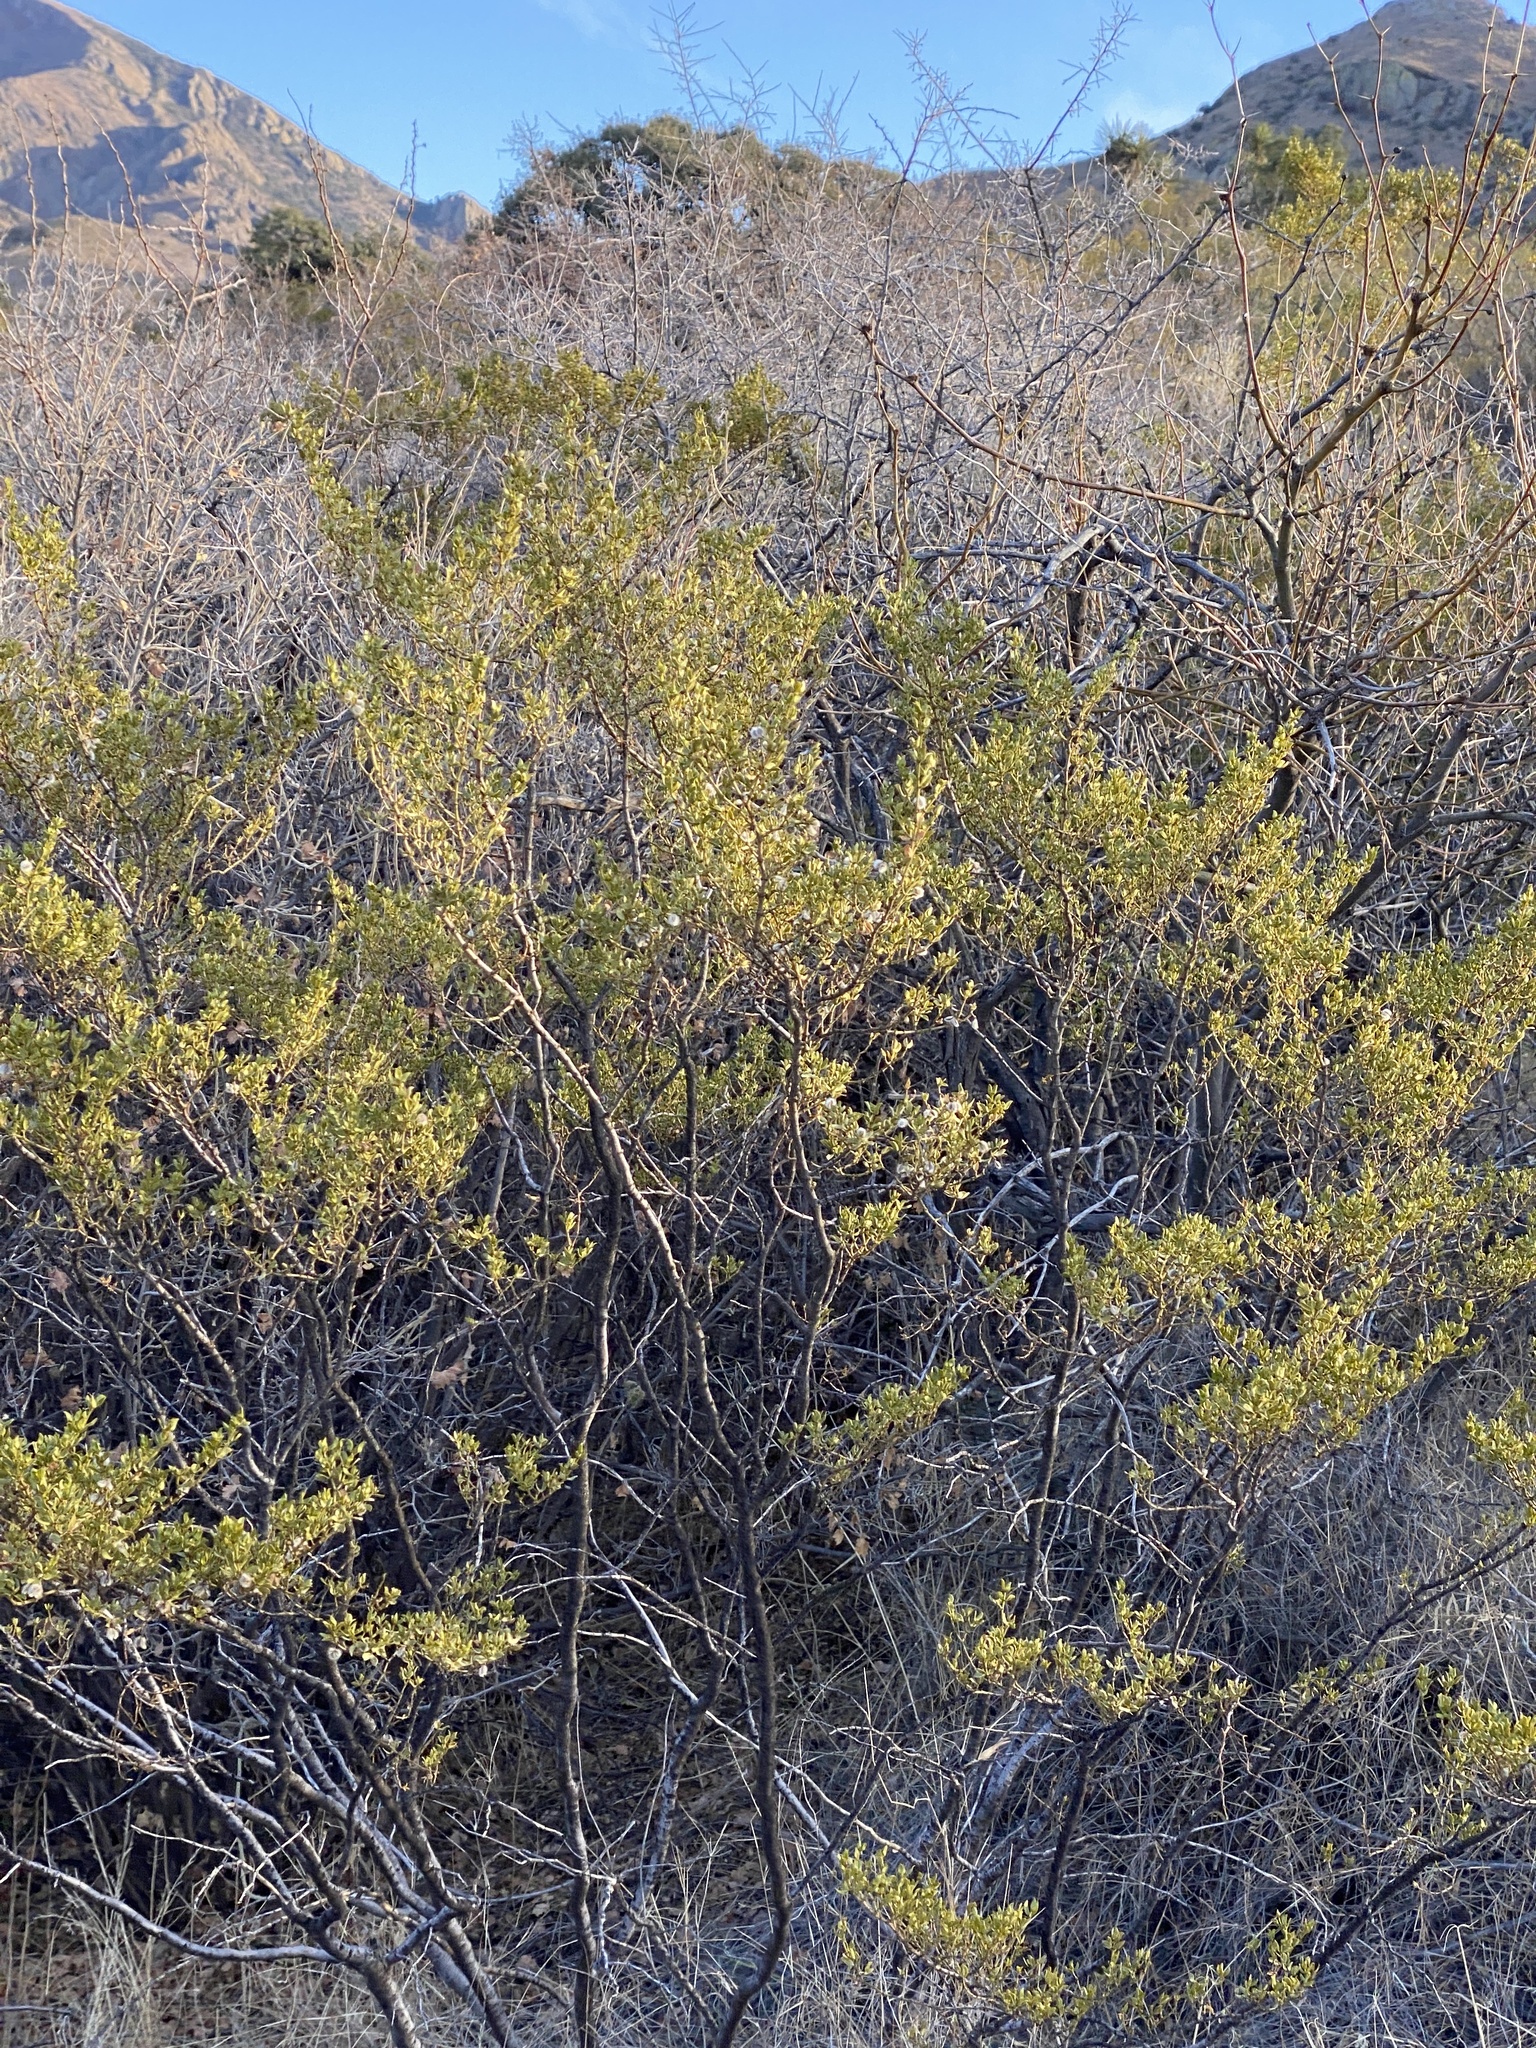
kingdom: Plantae
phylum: Tracheophyta
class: Magnoliopsida
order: Zygophyllales
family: Zygophyllaceae
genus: Larrea
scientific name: Larrea tridentata
